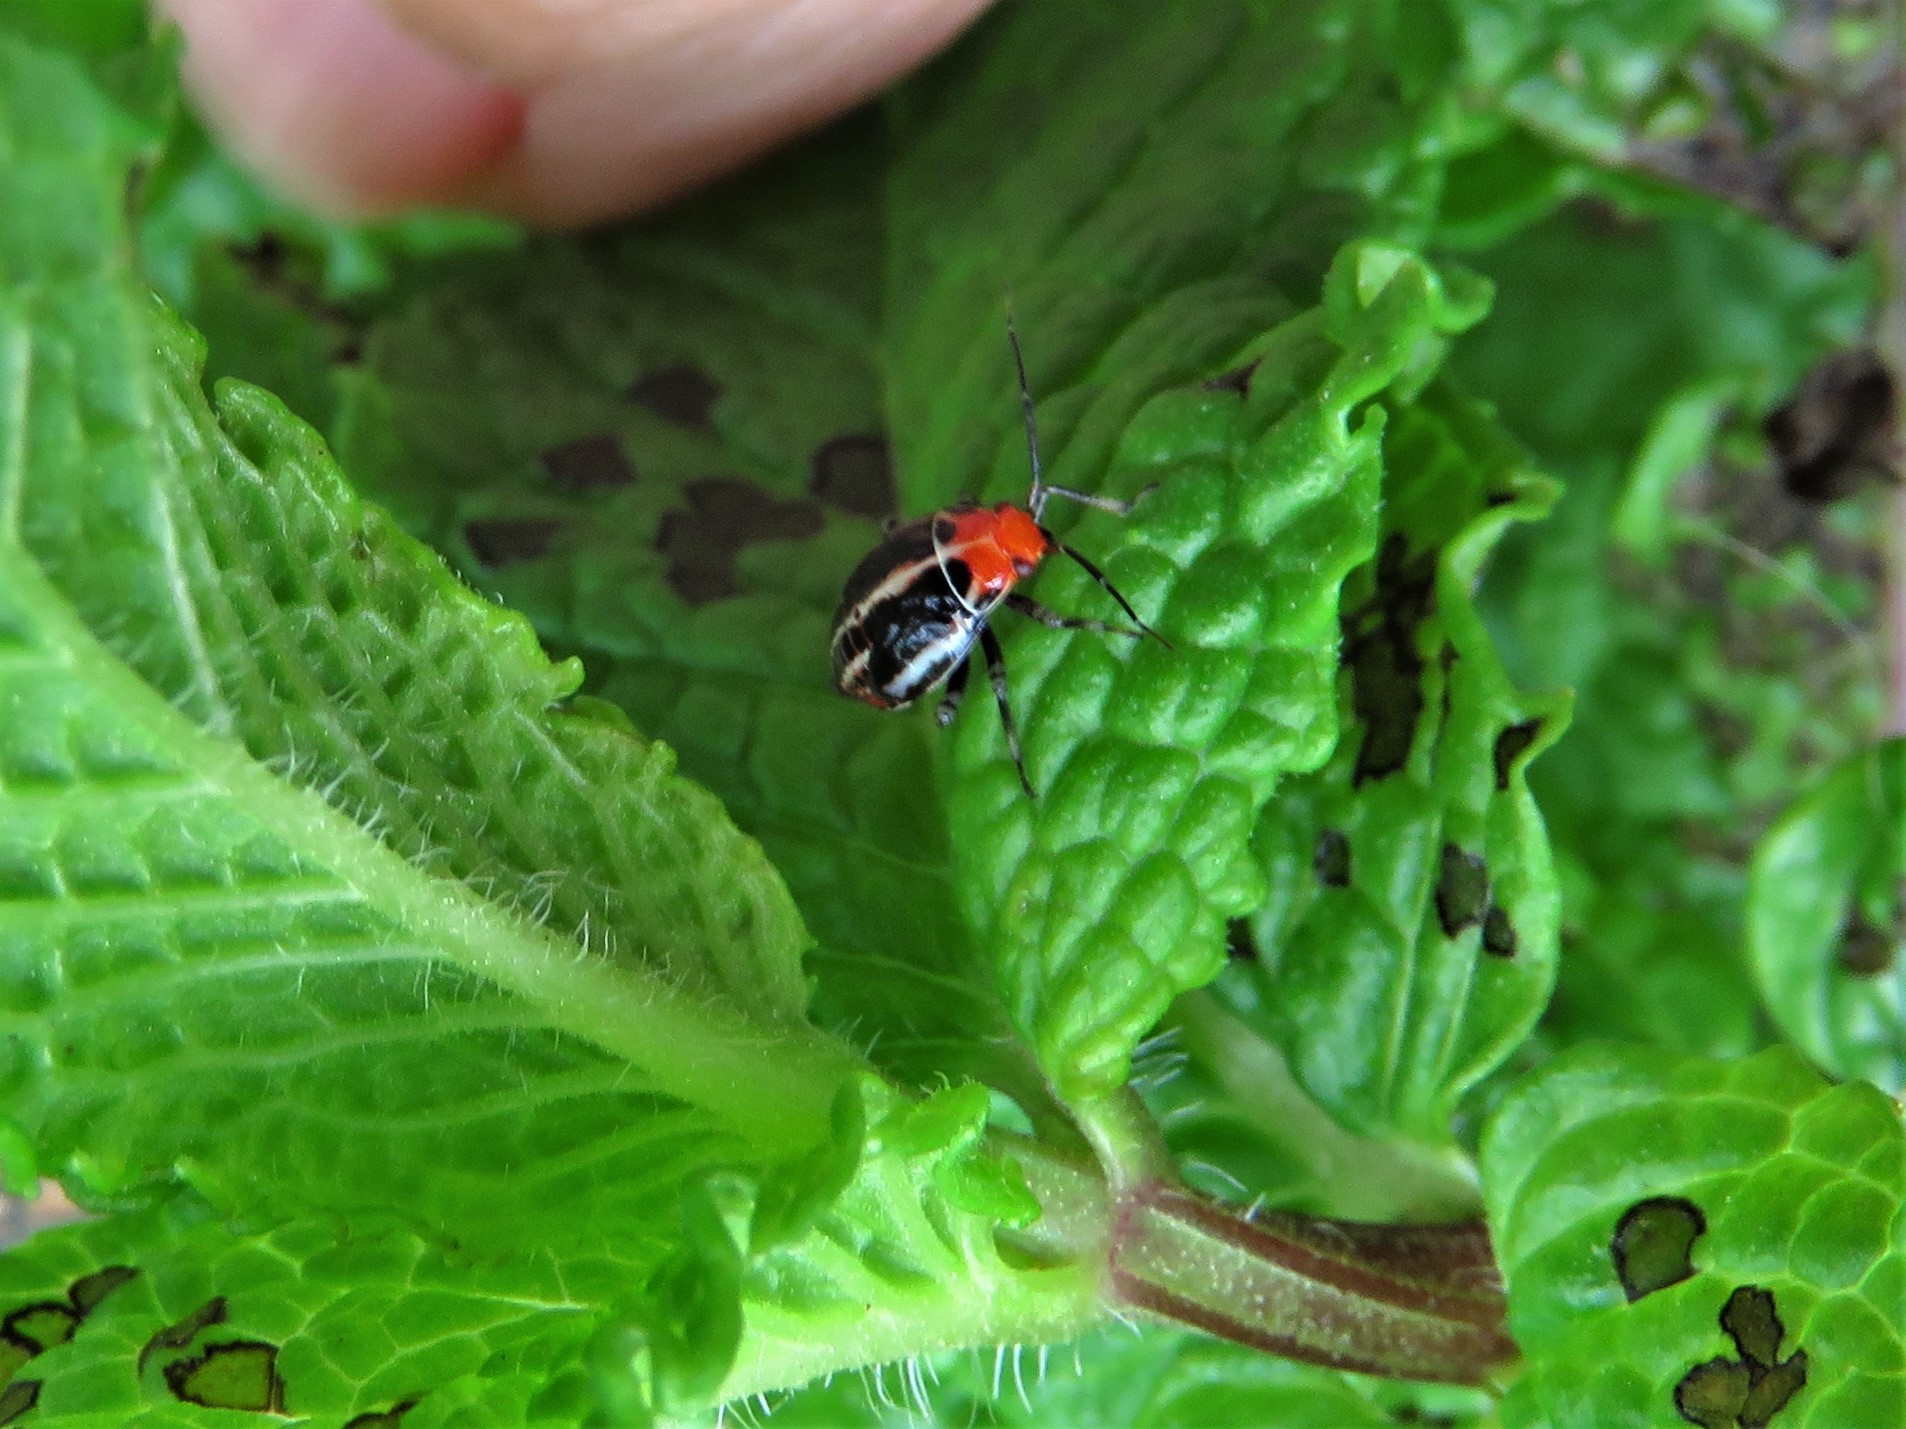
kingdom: Animalia
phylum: Arthropoda
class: Insecta
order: Hemiptera
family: Miridae
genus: Poecilocapsus
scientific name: Poecilocapsus lineatus
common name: Four-lined plant bug
